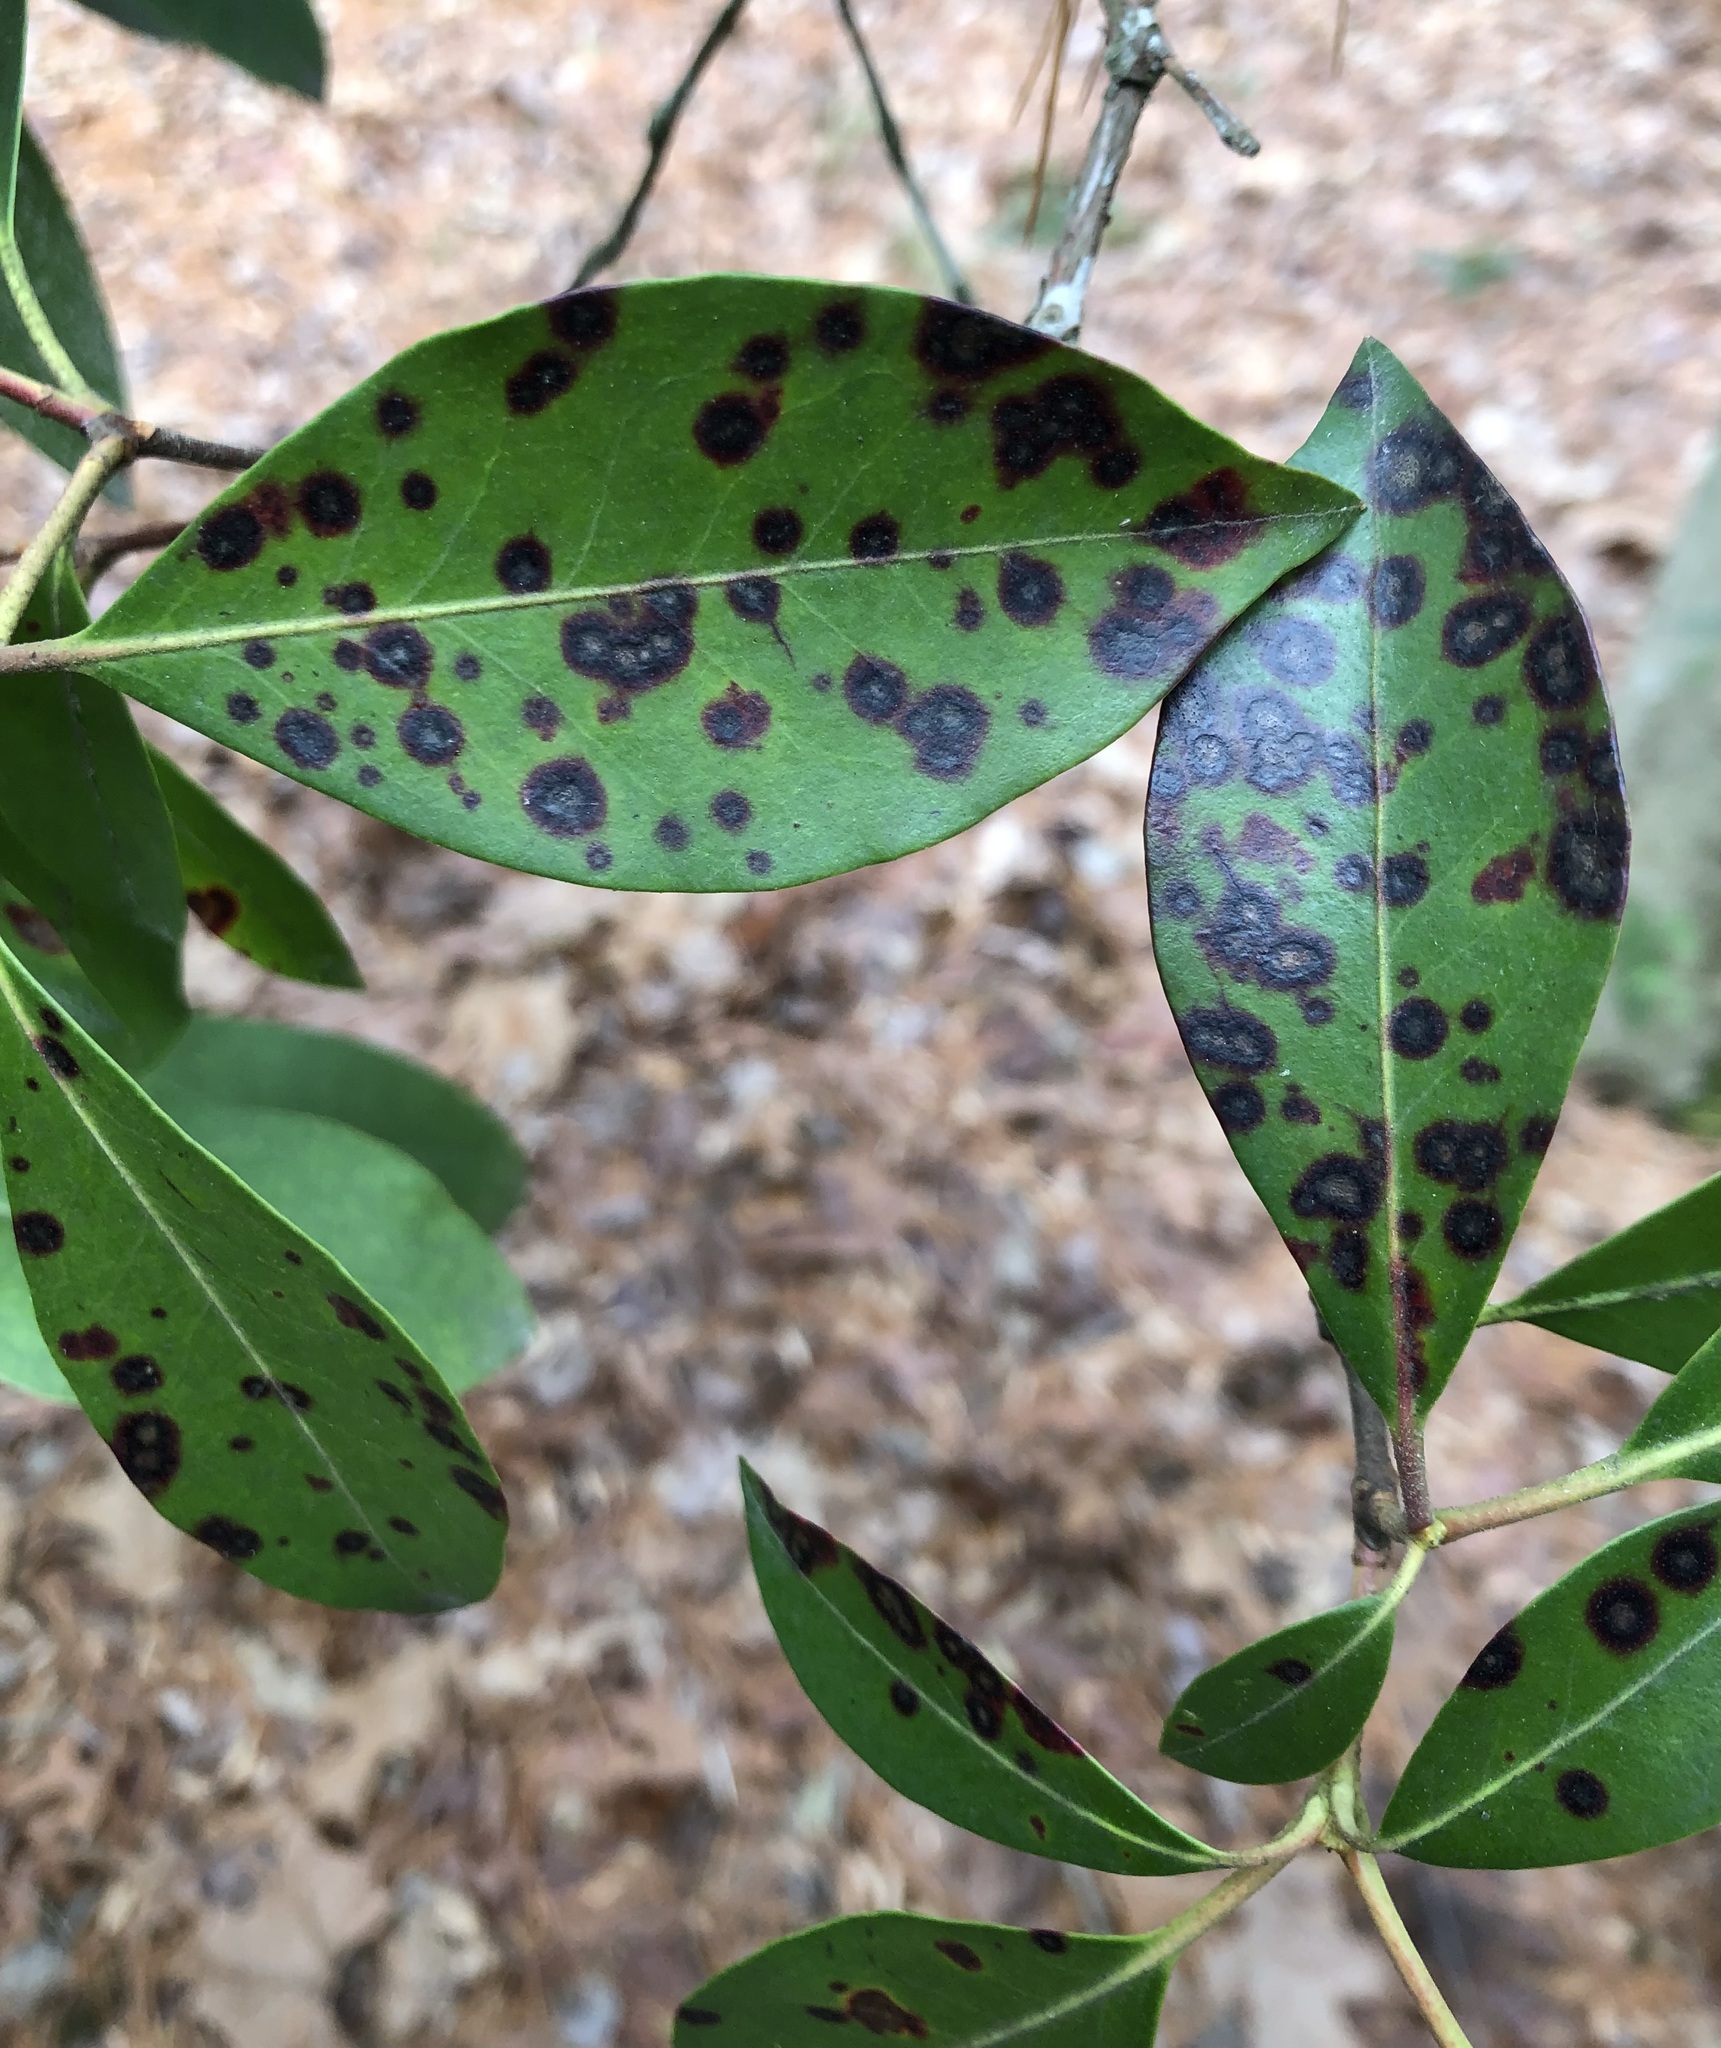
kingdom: Fungi
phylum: Ascomycota
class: Dothideomycetes
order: Mycosphaerellales
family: Mycosphaerellaceae
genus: Mycosphaerella
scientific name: Mycosphaerella colorata
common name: Mountain laurel leaf spot
